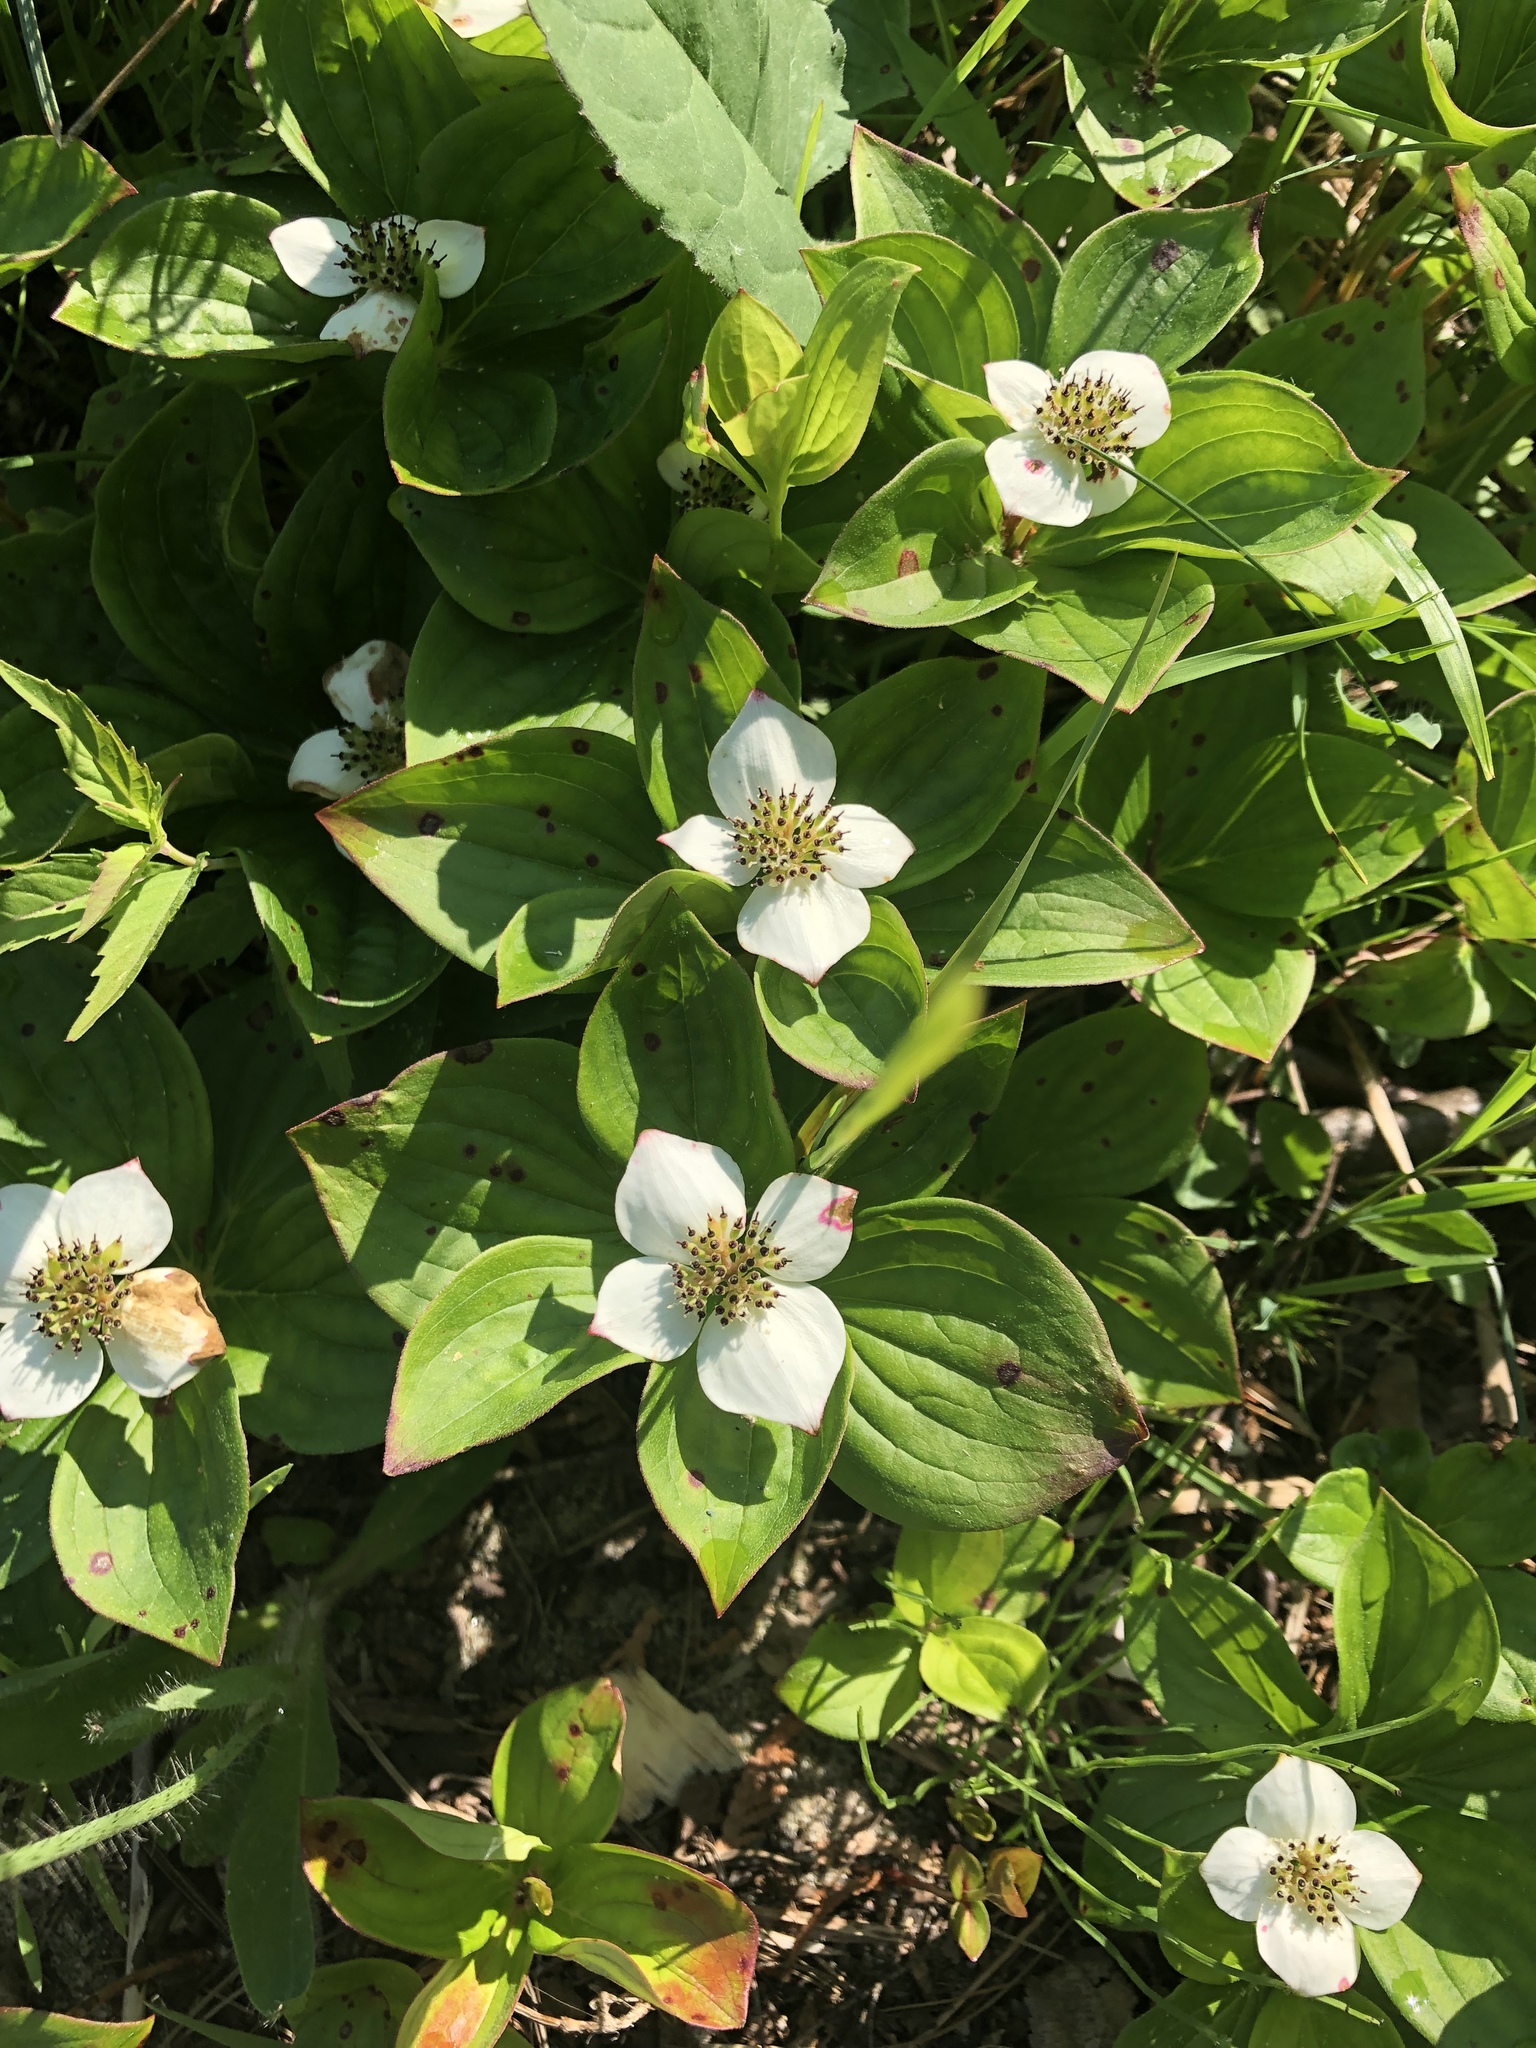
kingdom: Plantae
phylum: Tracheophyta
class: Magnoliopsida
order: Cornales
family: Cornaceae
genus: Cornus
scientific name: Cornus canadensis
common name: Creeping dogwood
